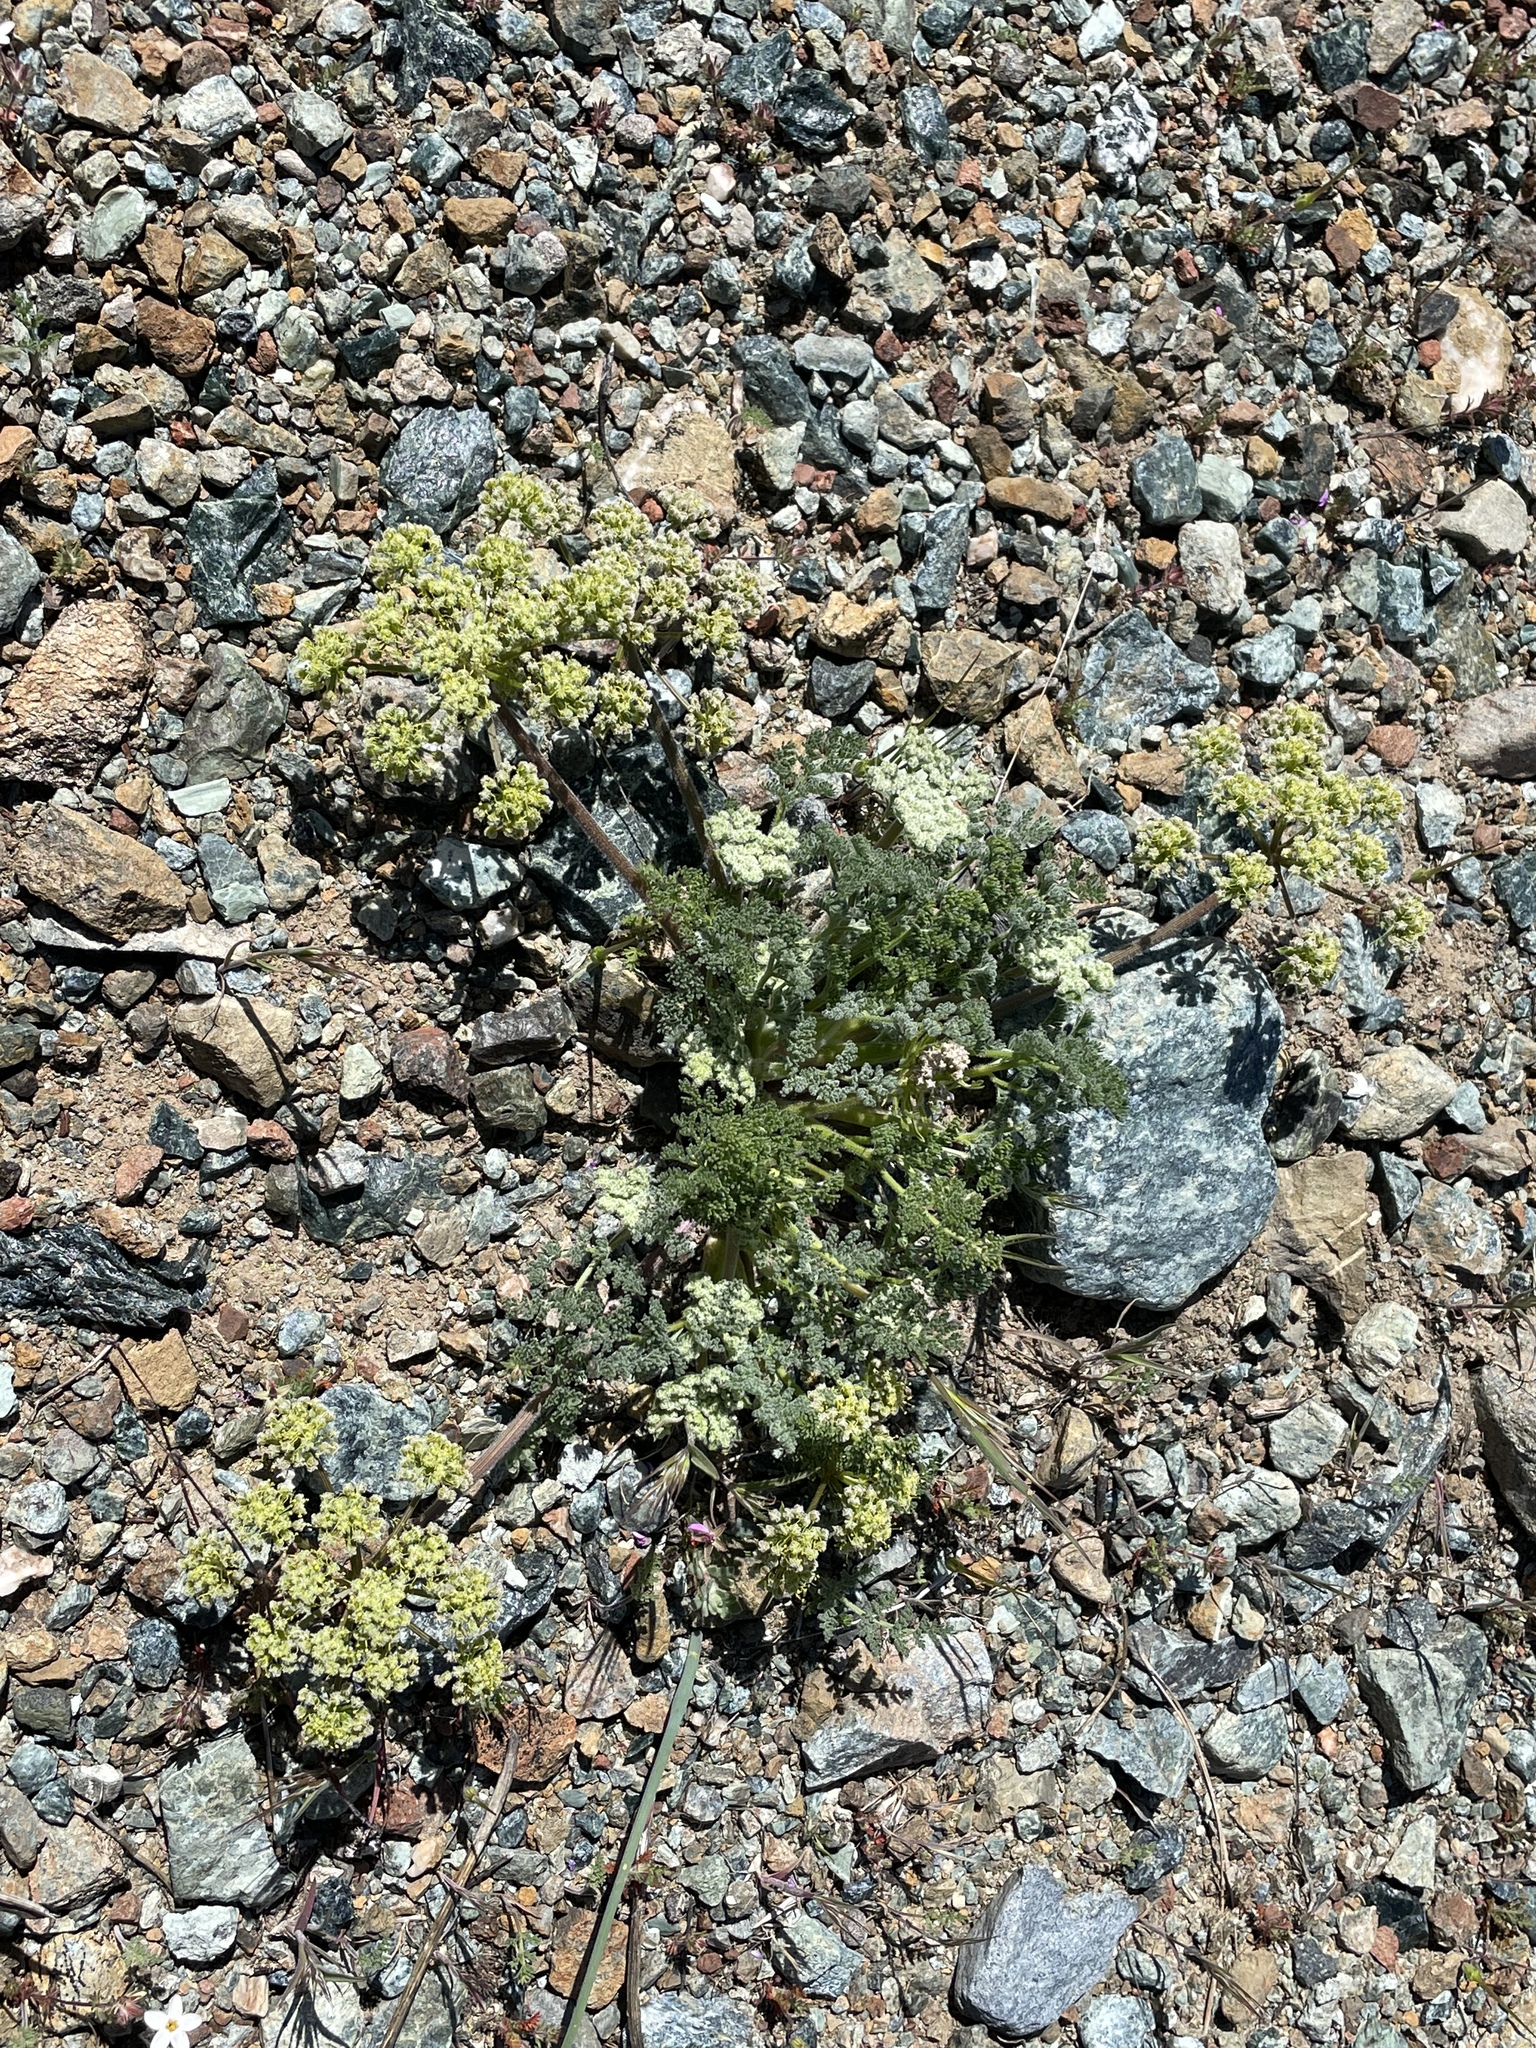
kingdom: Plantae
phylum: Tracheophyta
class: Magnoliopsida
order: Apiales
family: Apiaceae
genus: Lomatium
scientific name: Lomatium dasycarpum
